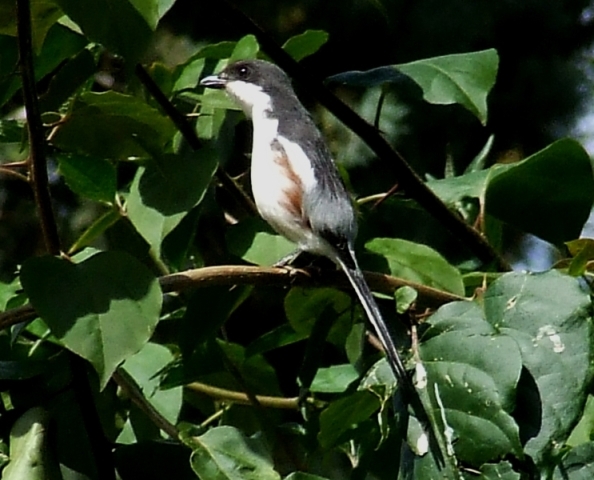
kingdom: Animalia
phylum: Chordata
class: Aves
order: Passeriformes
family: Laniidae
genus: Lanius
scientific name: Lanius collaris
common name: Southern fiscal
